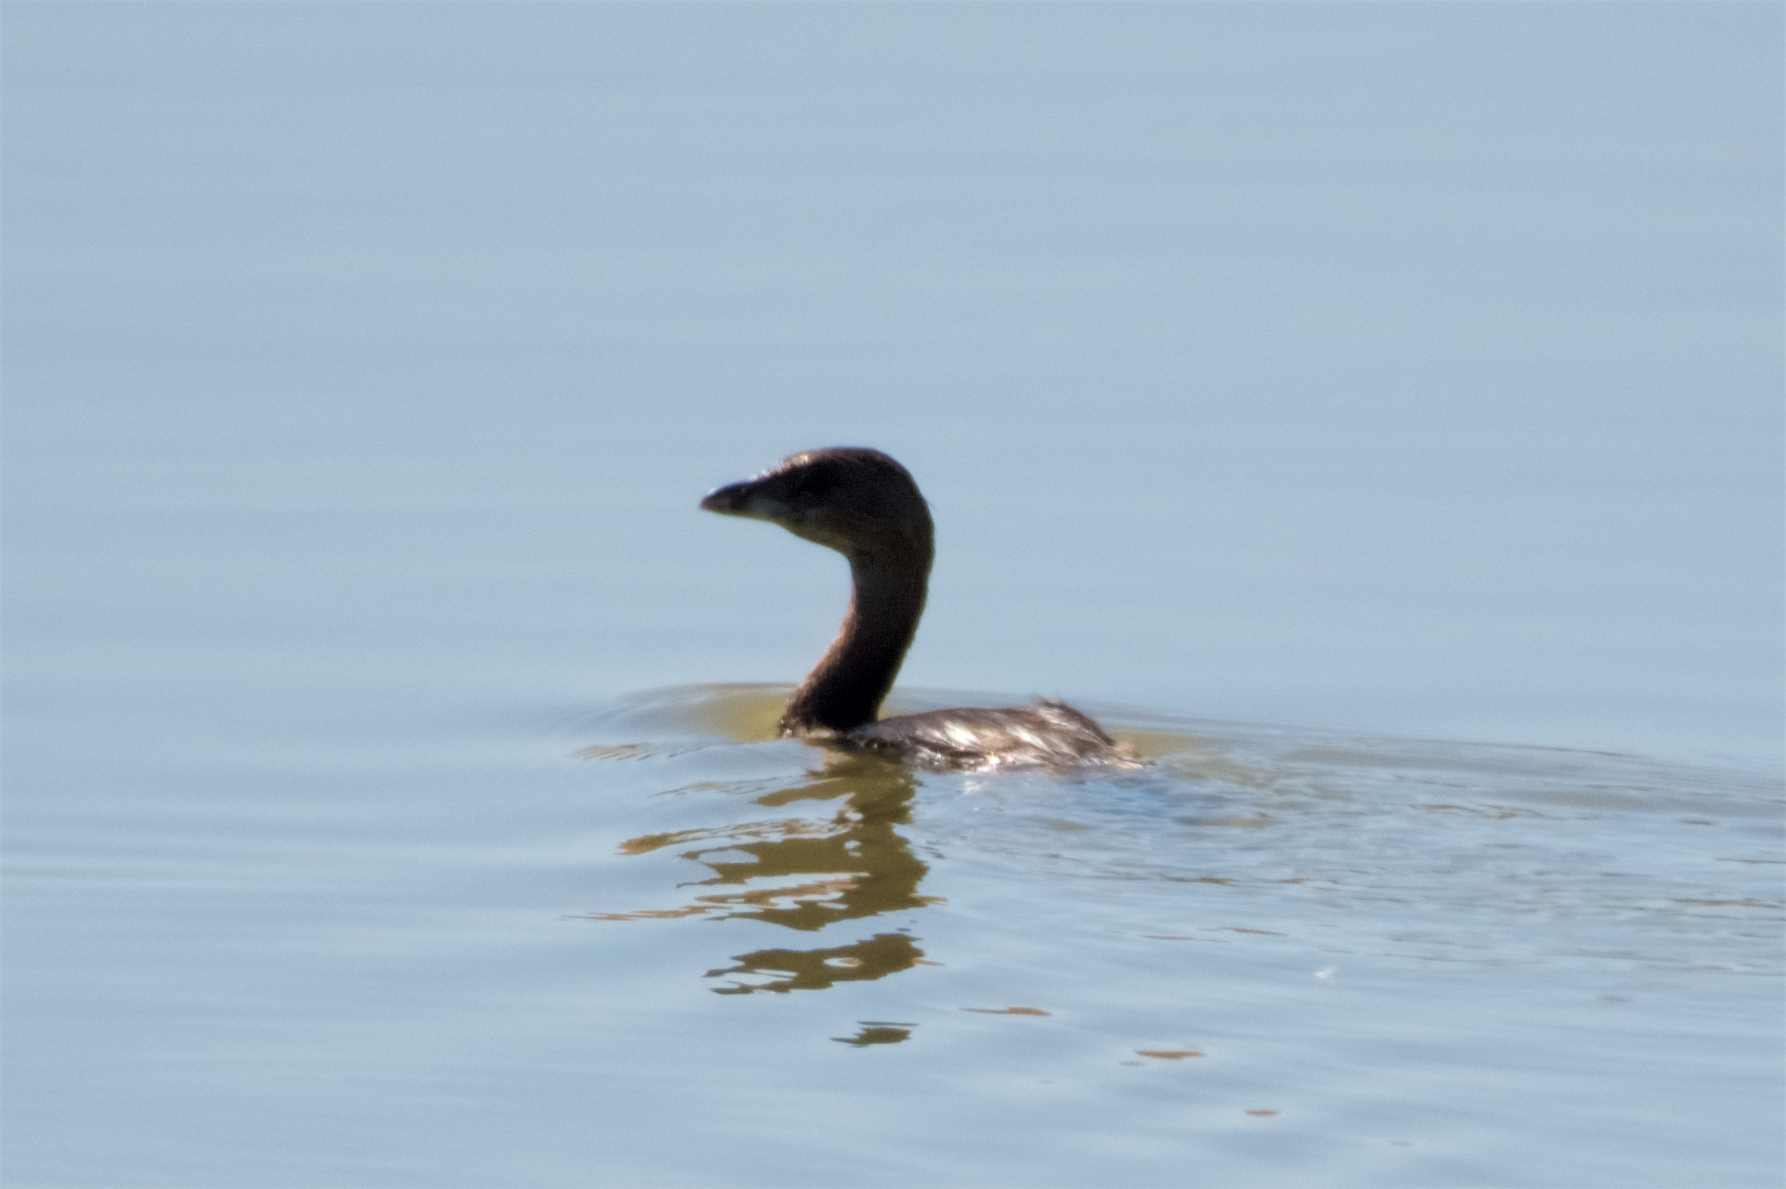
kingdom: Animalia
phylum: Chordata
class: Aves
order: Podicipediformes
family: Podicipedidae
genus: Podilymbus
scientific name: Podilymbus podiceps
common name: Pied-billed grebe
